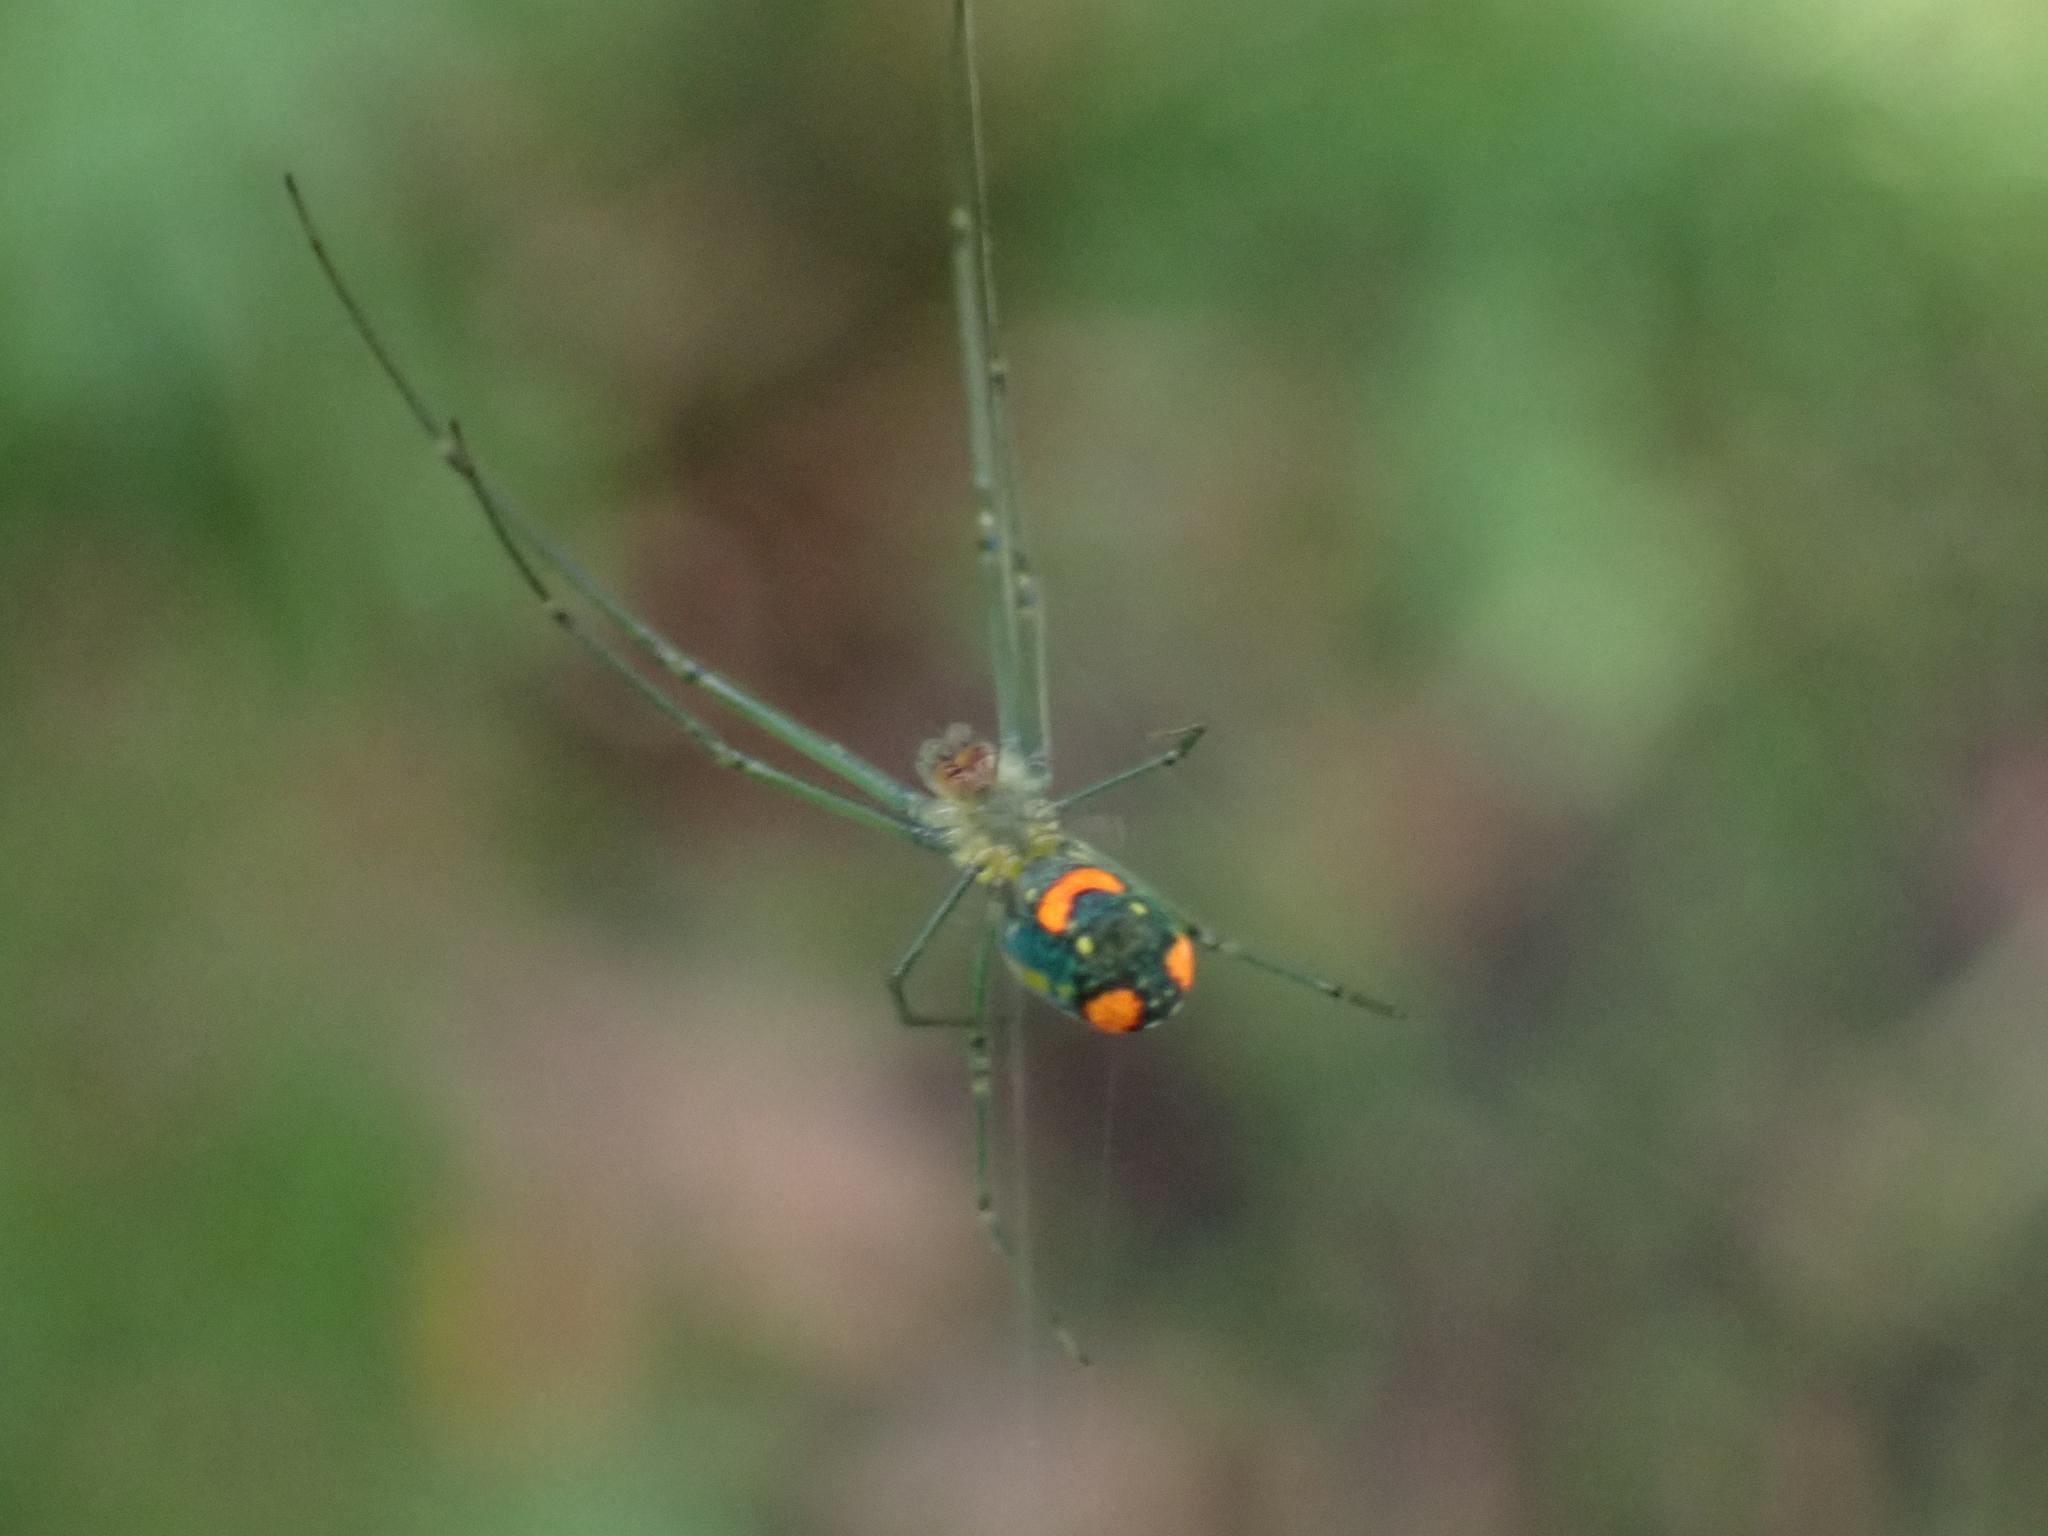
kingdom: Animalia
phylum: Arthropoda
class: Arachnida
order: Araneae
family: Tetragnathidae
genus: Leucauge
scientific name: Leucauge argyrobapta
